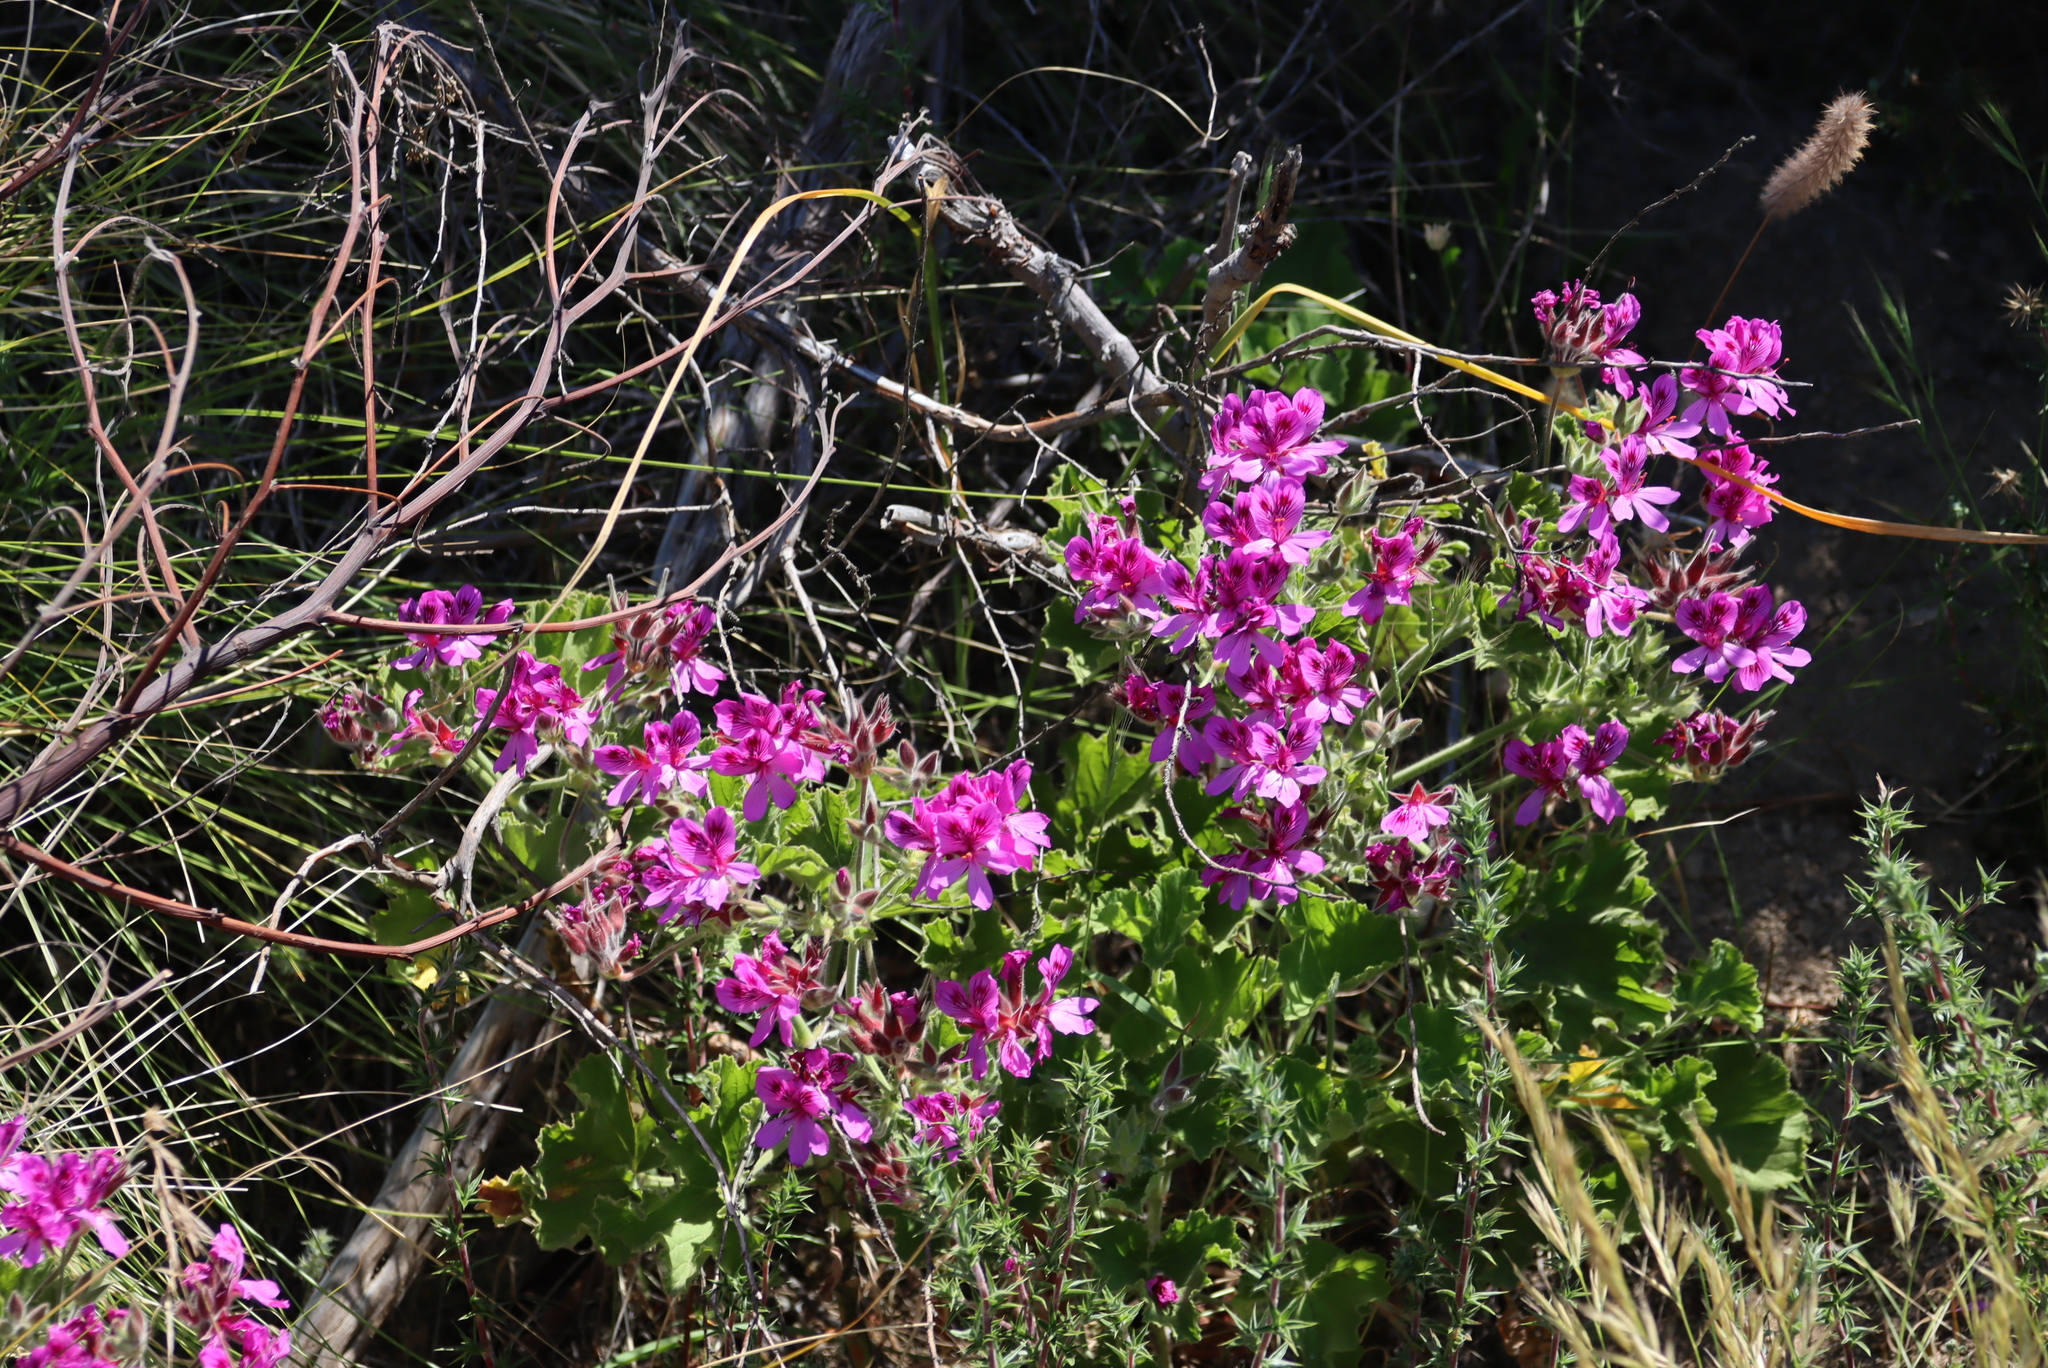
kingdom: Plantae
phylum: Tracheophyta
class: Magnoliopsida
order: Geraniales
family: Geraniaceae
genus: Pelargonium
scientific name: Pelargonium cucullatum
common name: Tree pelargonium
